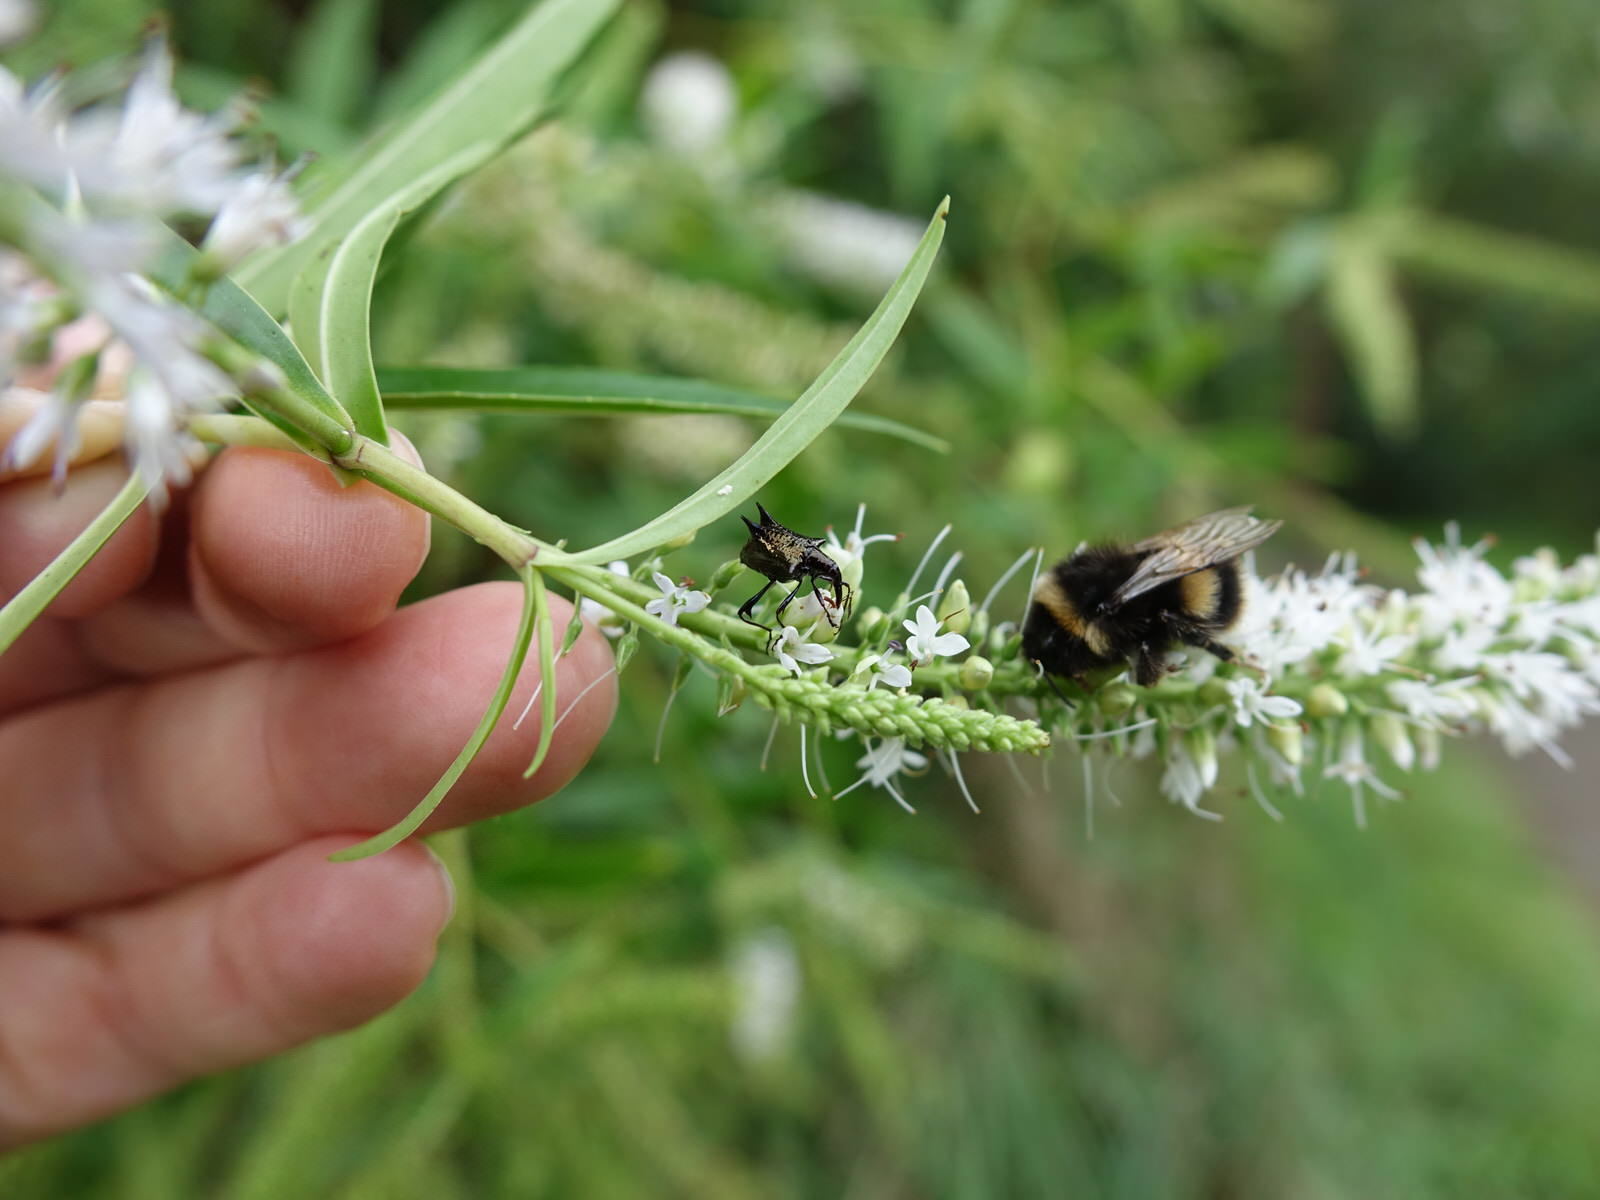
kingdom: Animalia
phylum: Arthropoda
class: Insecta
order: Hymenoptera
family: Apidae
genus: Bombus
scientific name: Bombus terrestris
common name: Buff-tailed bumblebee
